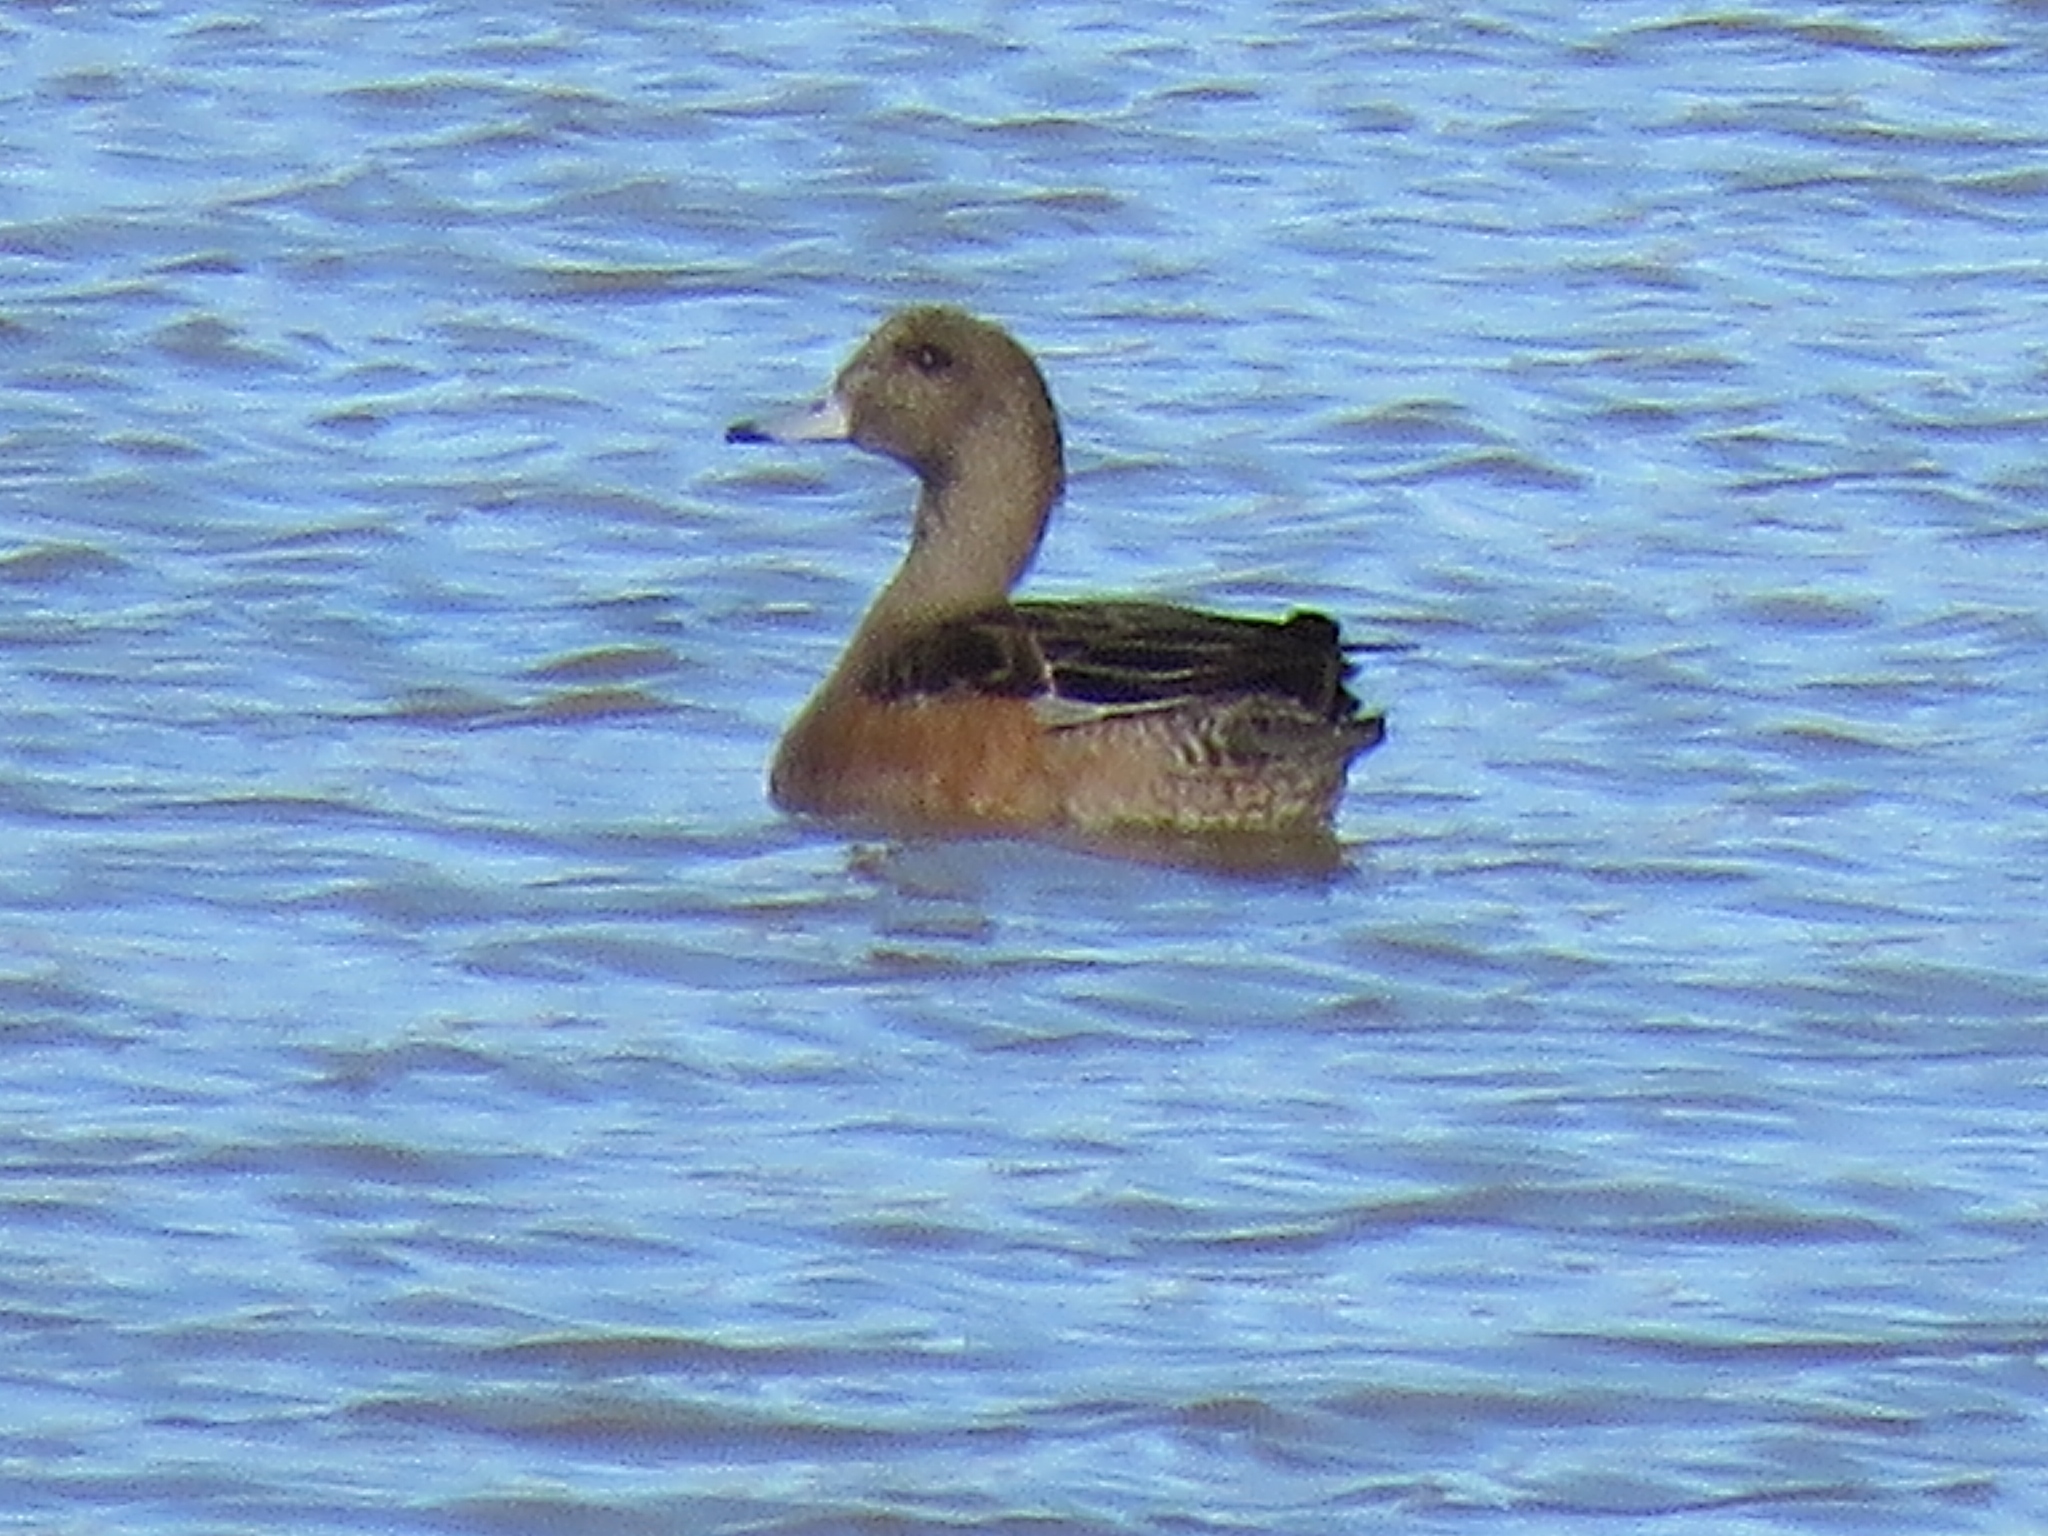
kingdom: Animalia
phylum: Chordata
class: Aves
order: Anseriformes
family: Anatidae
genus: Mareca
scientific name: Mareca americana
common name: American wigeon
